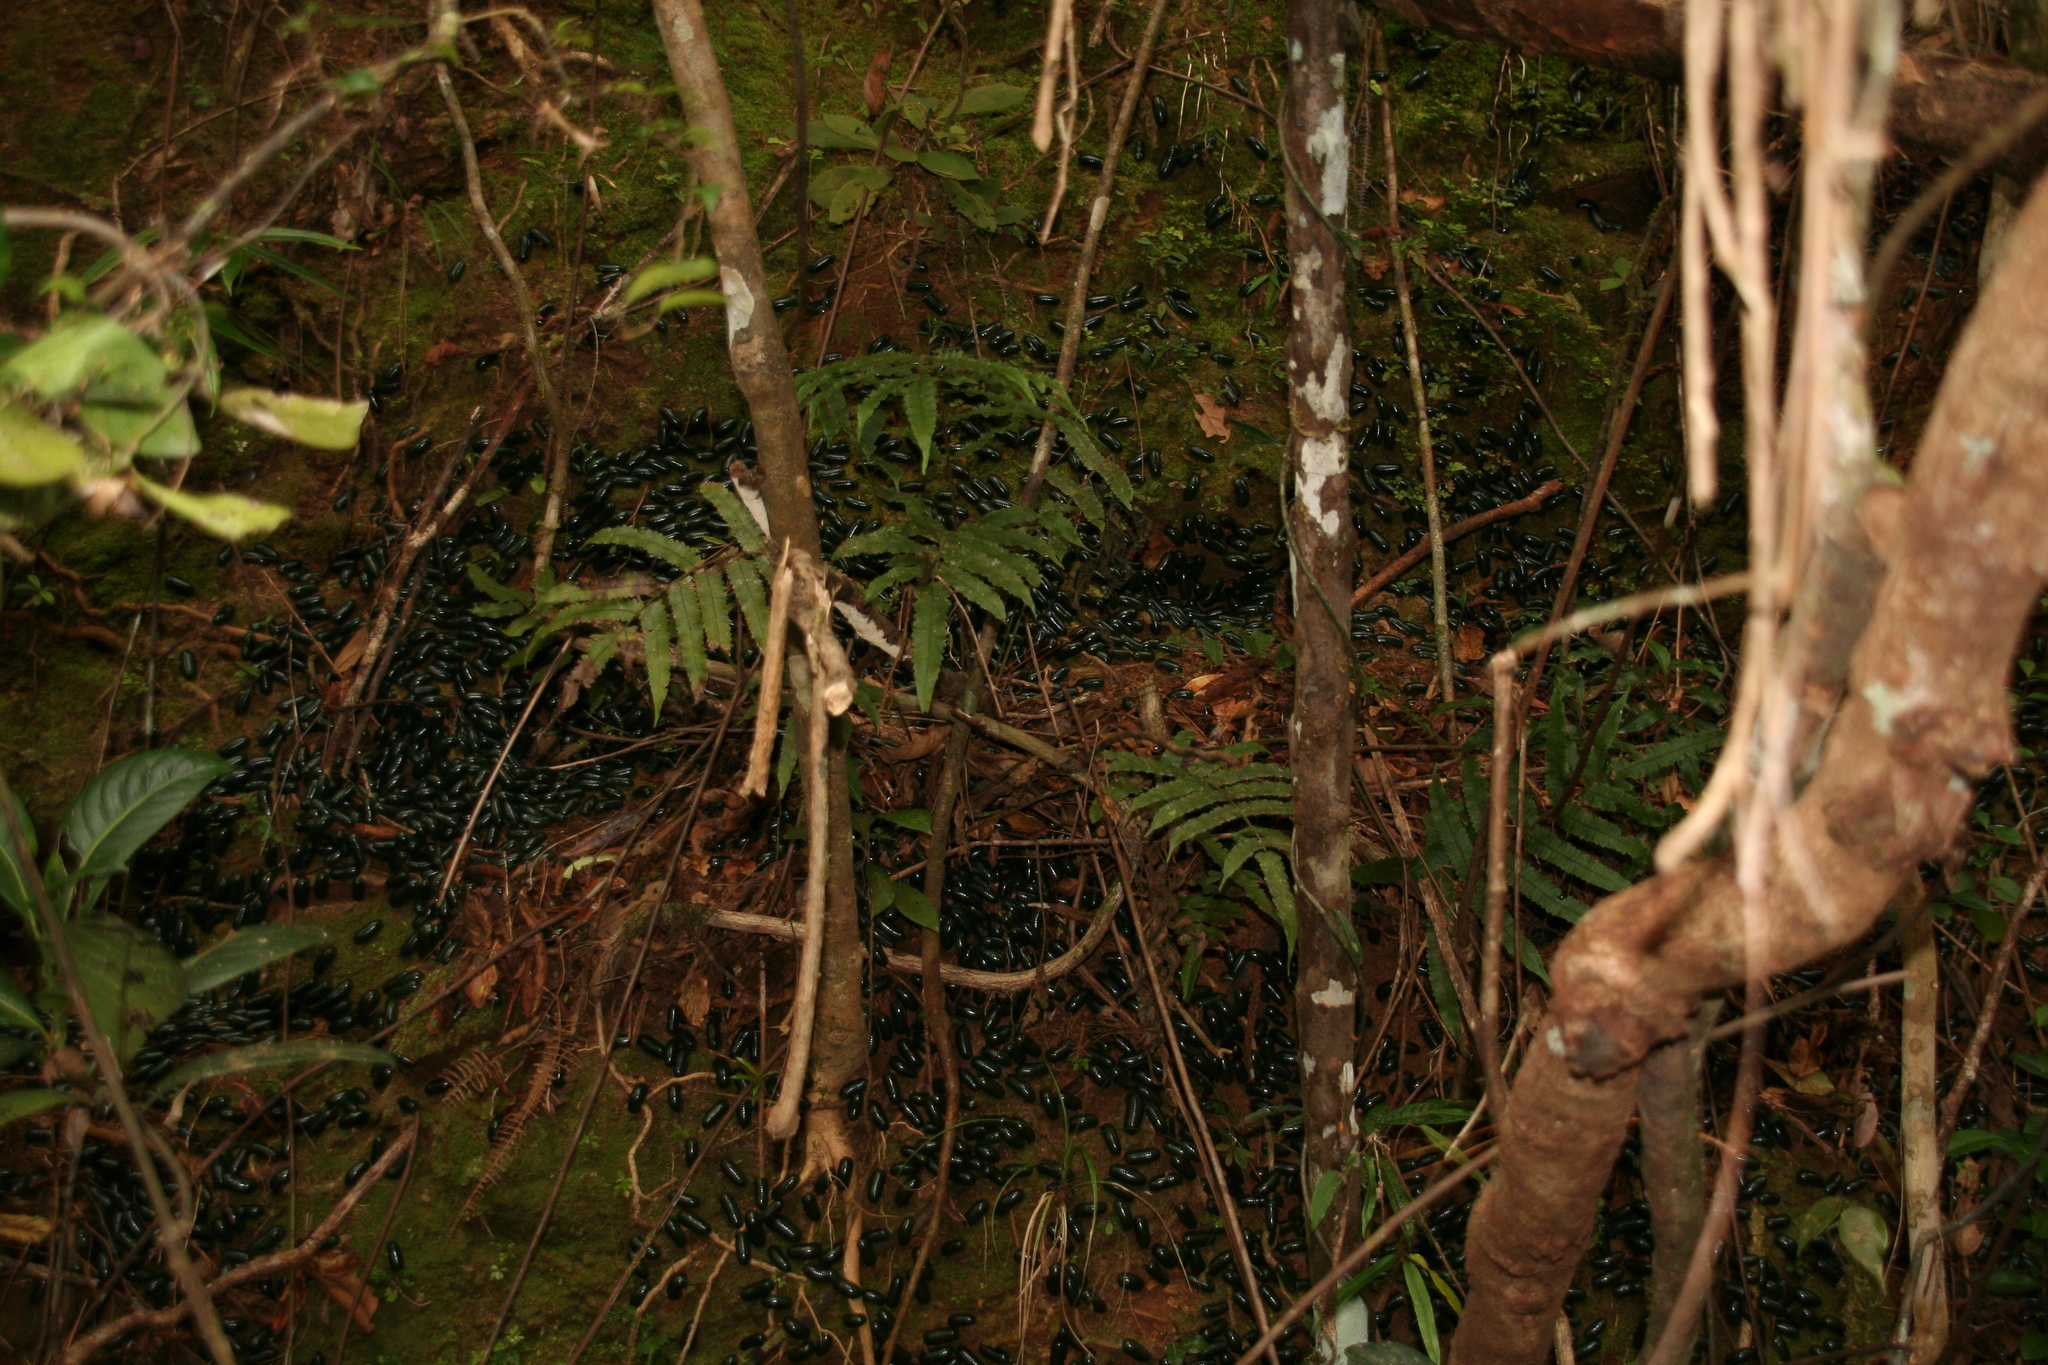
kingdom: Animalia
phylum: Arthropoda
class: Diplopoda
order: Sphaerotheriida
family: Arthrosphaeridae
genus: Zoosphaerium
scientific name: Zoosphaerium neptunus
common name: Emerald green giant pill-millipede
